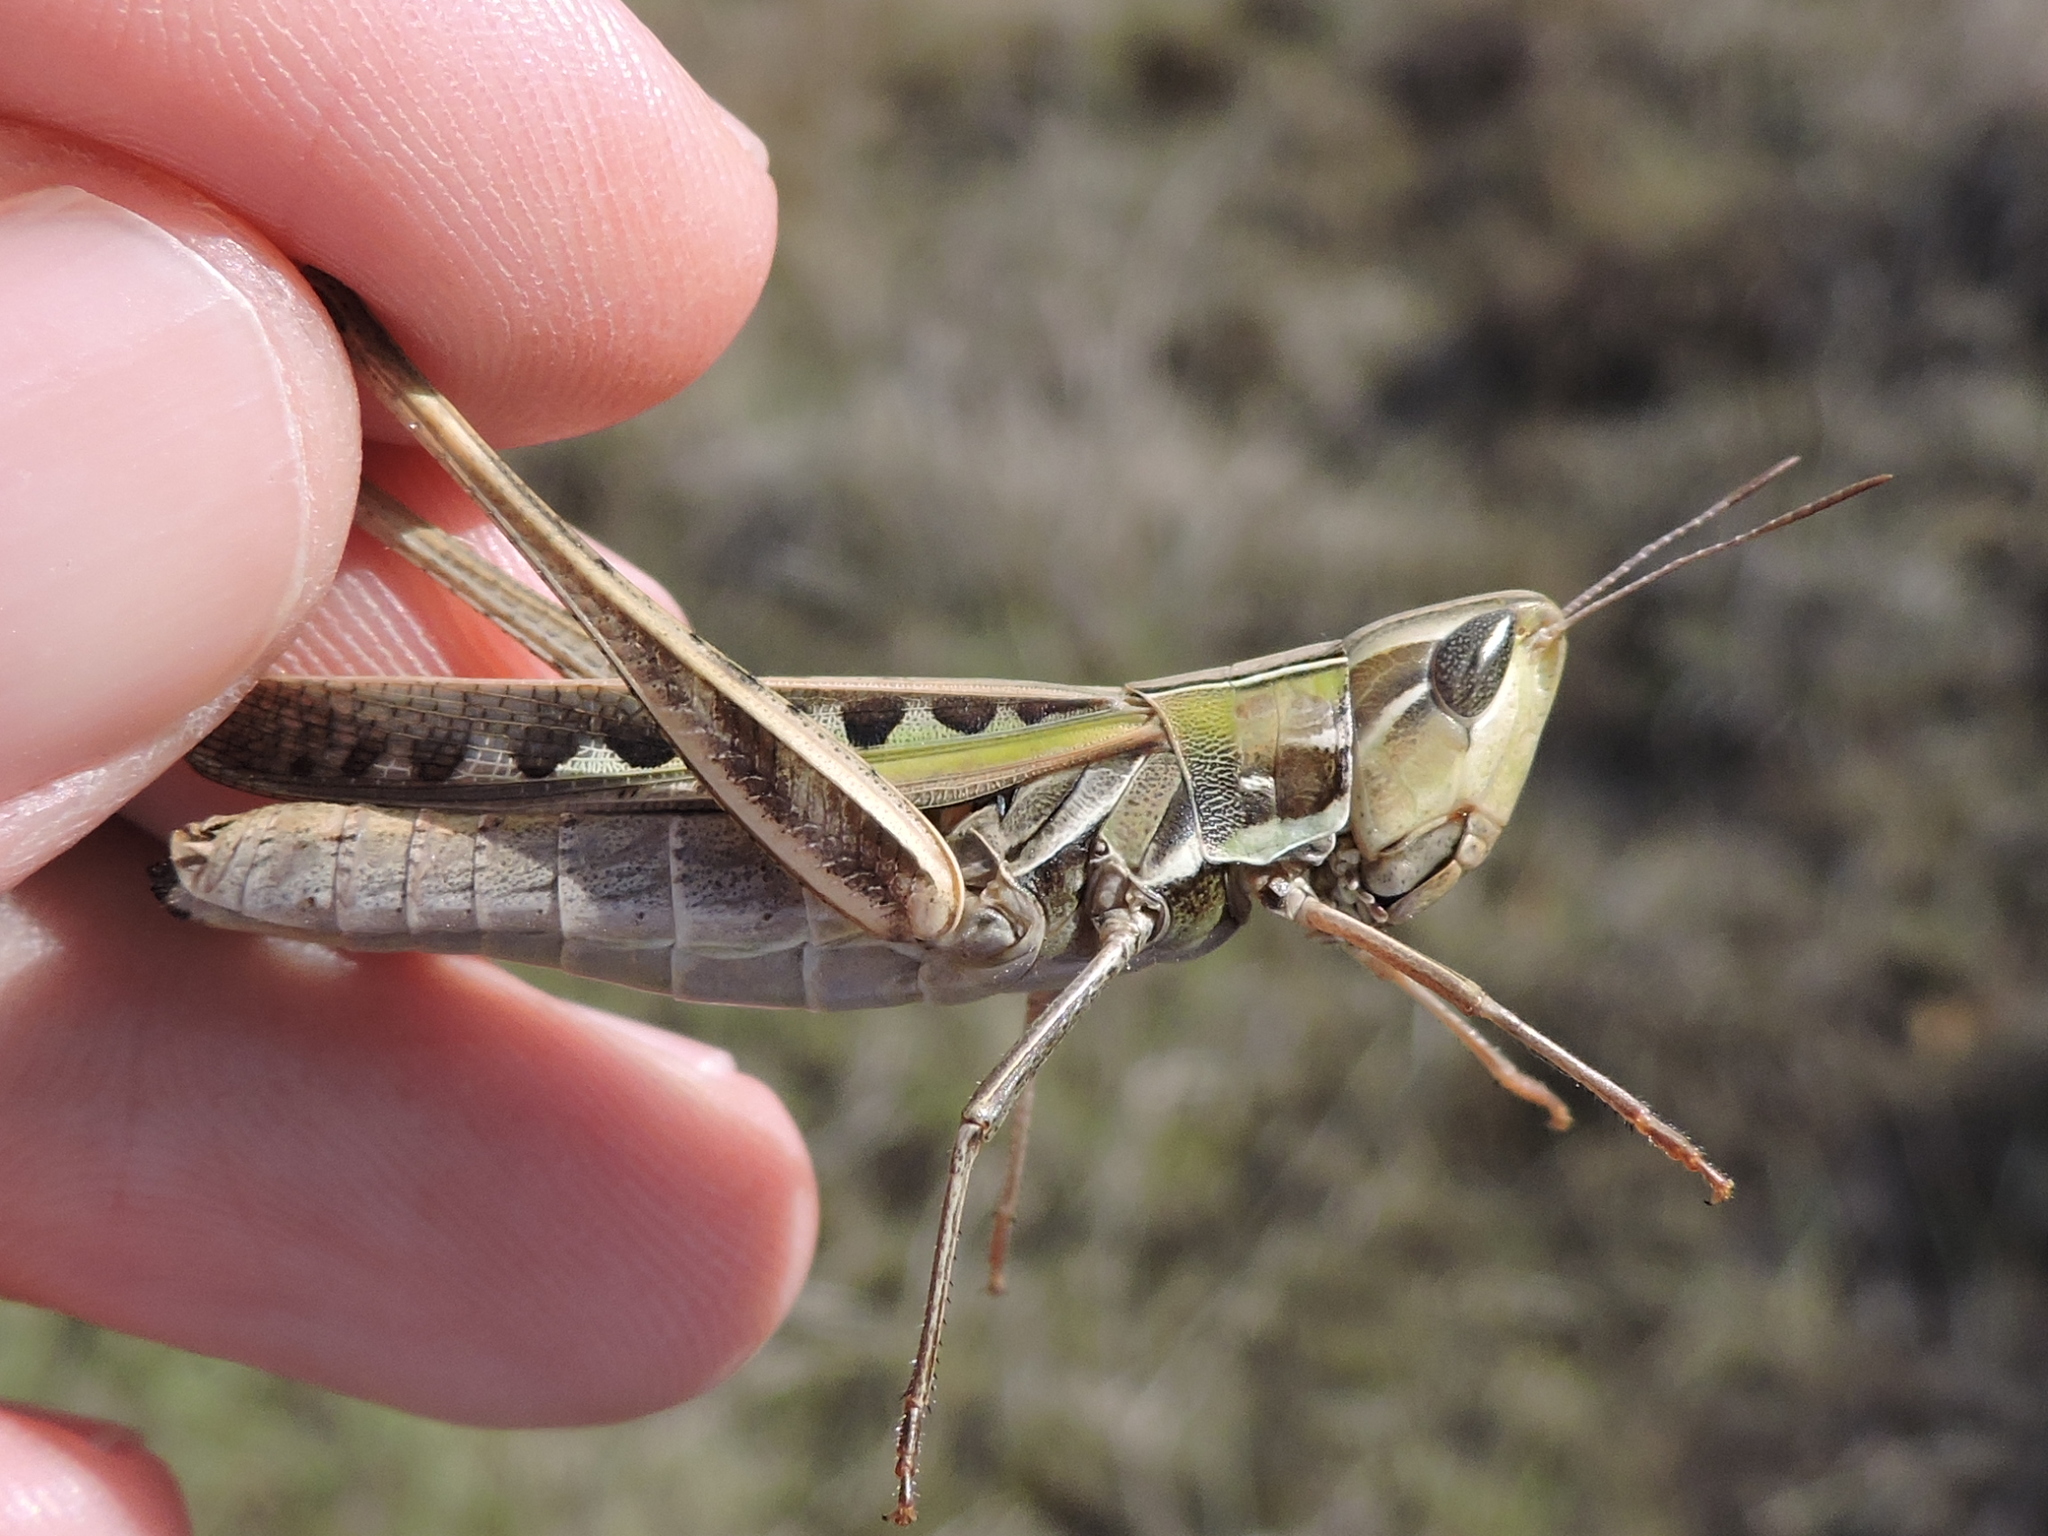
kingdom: Animalia
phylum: Arthropoda
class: Insecta
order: Orthoptera
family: Acrididae
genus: Syrbula
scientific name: Syrbula admirabilis
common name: Handsome grasshopper
